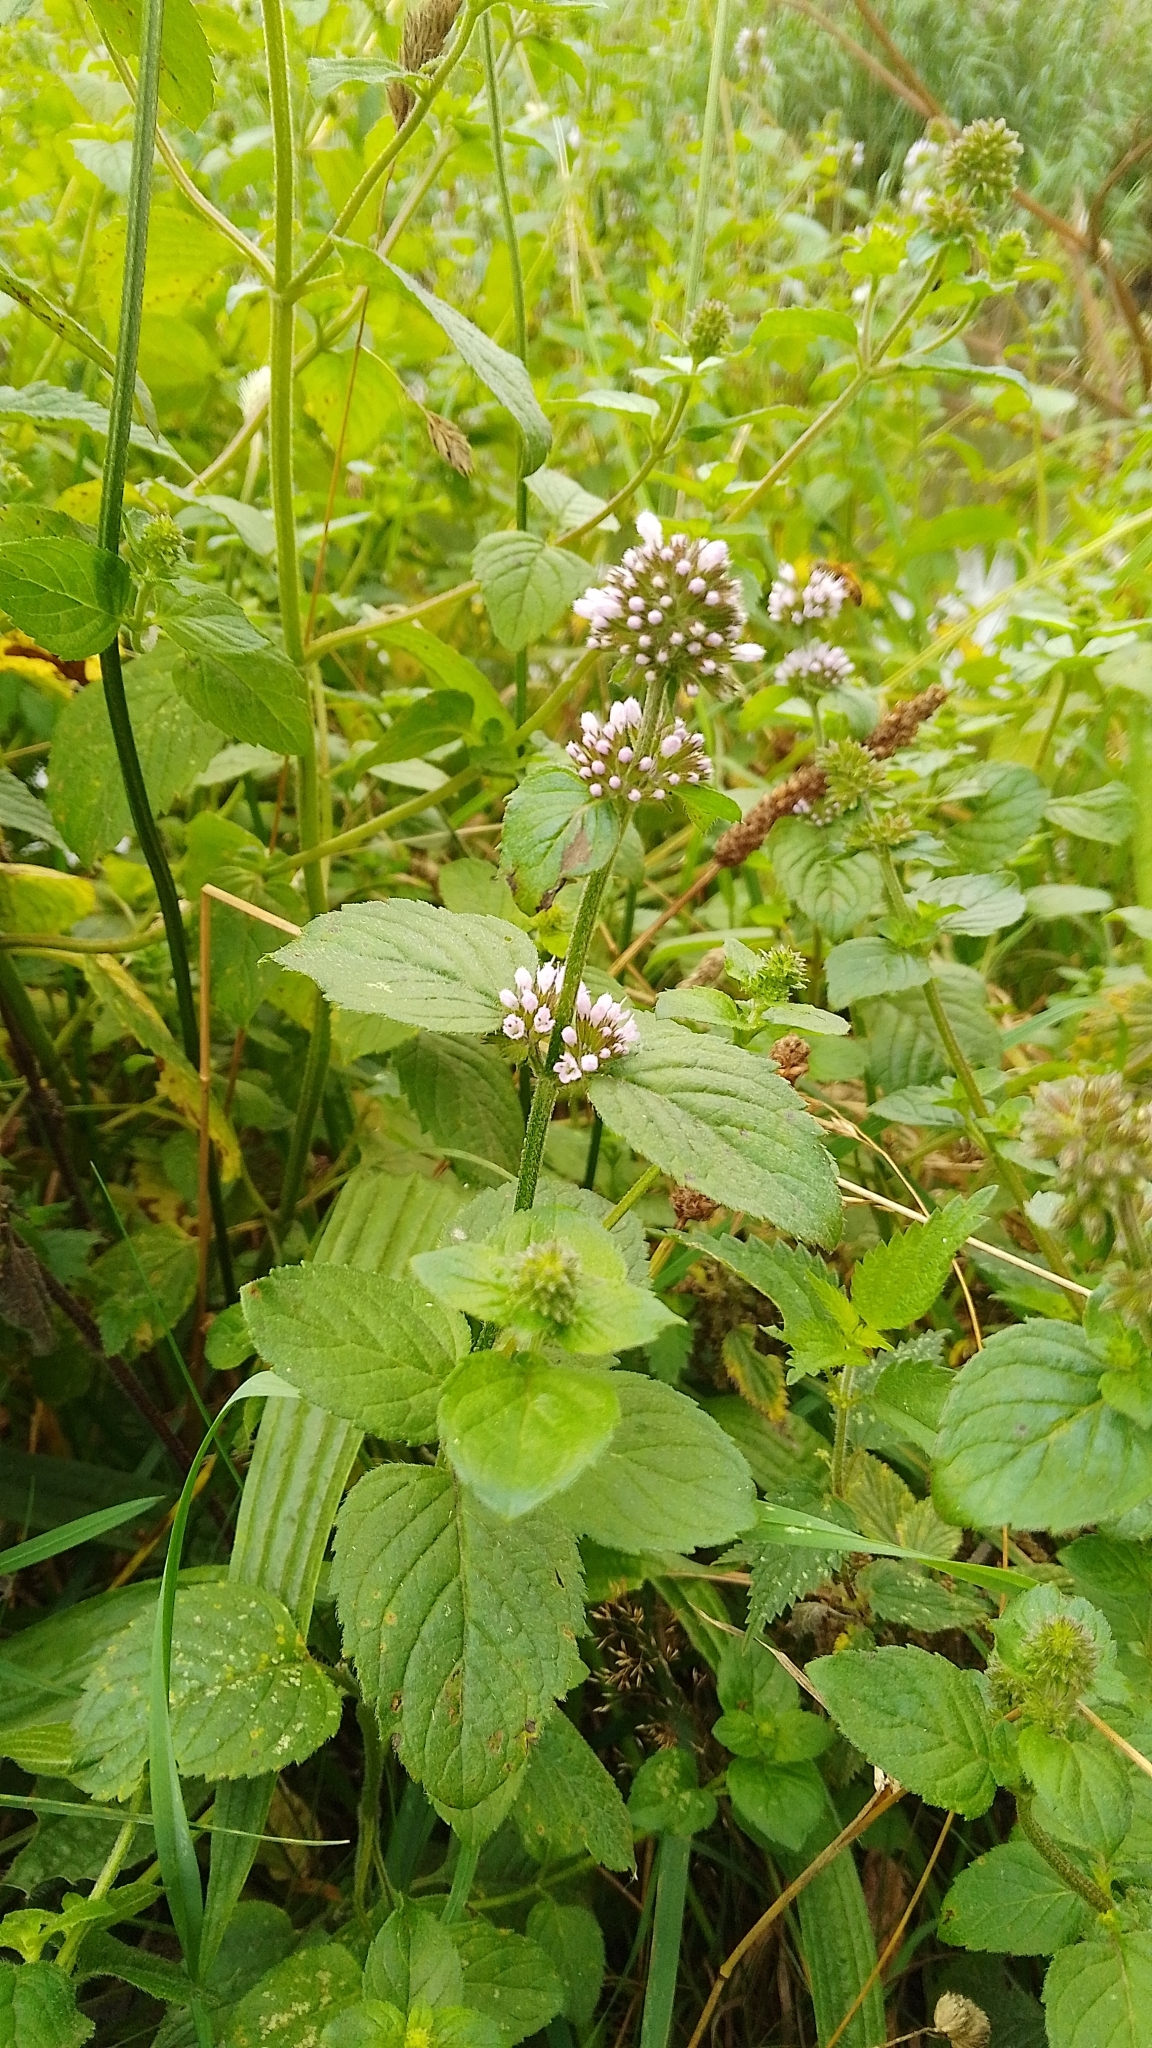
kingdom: Plantae
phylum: Tracheophyta
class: Magnoliopsida
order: Lamiales
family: Lamiaceae
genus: Mentha
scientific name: Mentha aquatica
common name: Water mint
